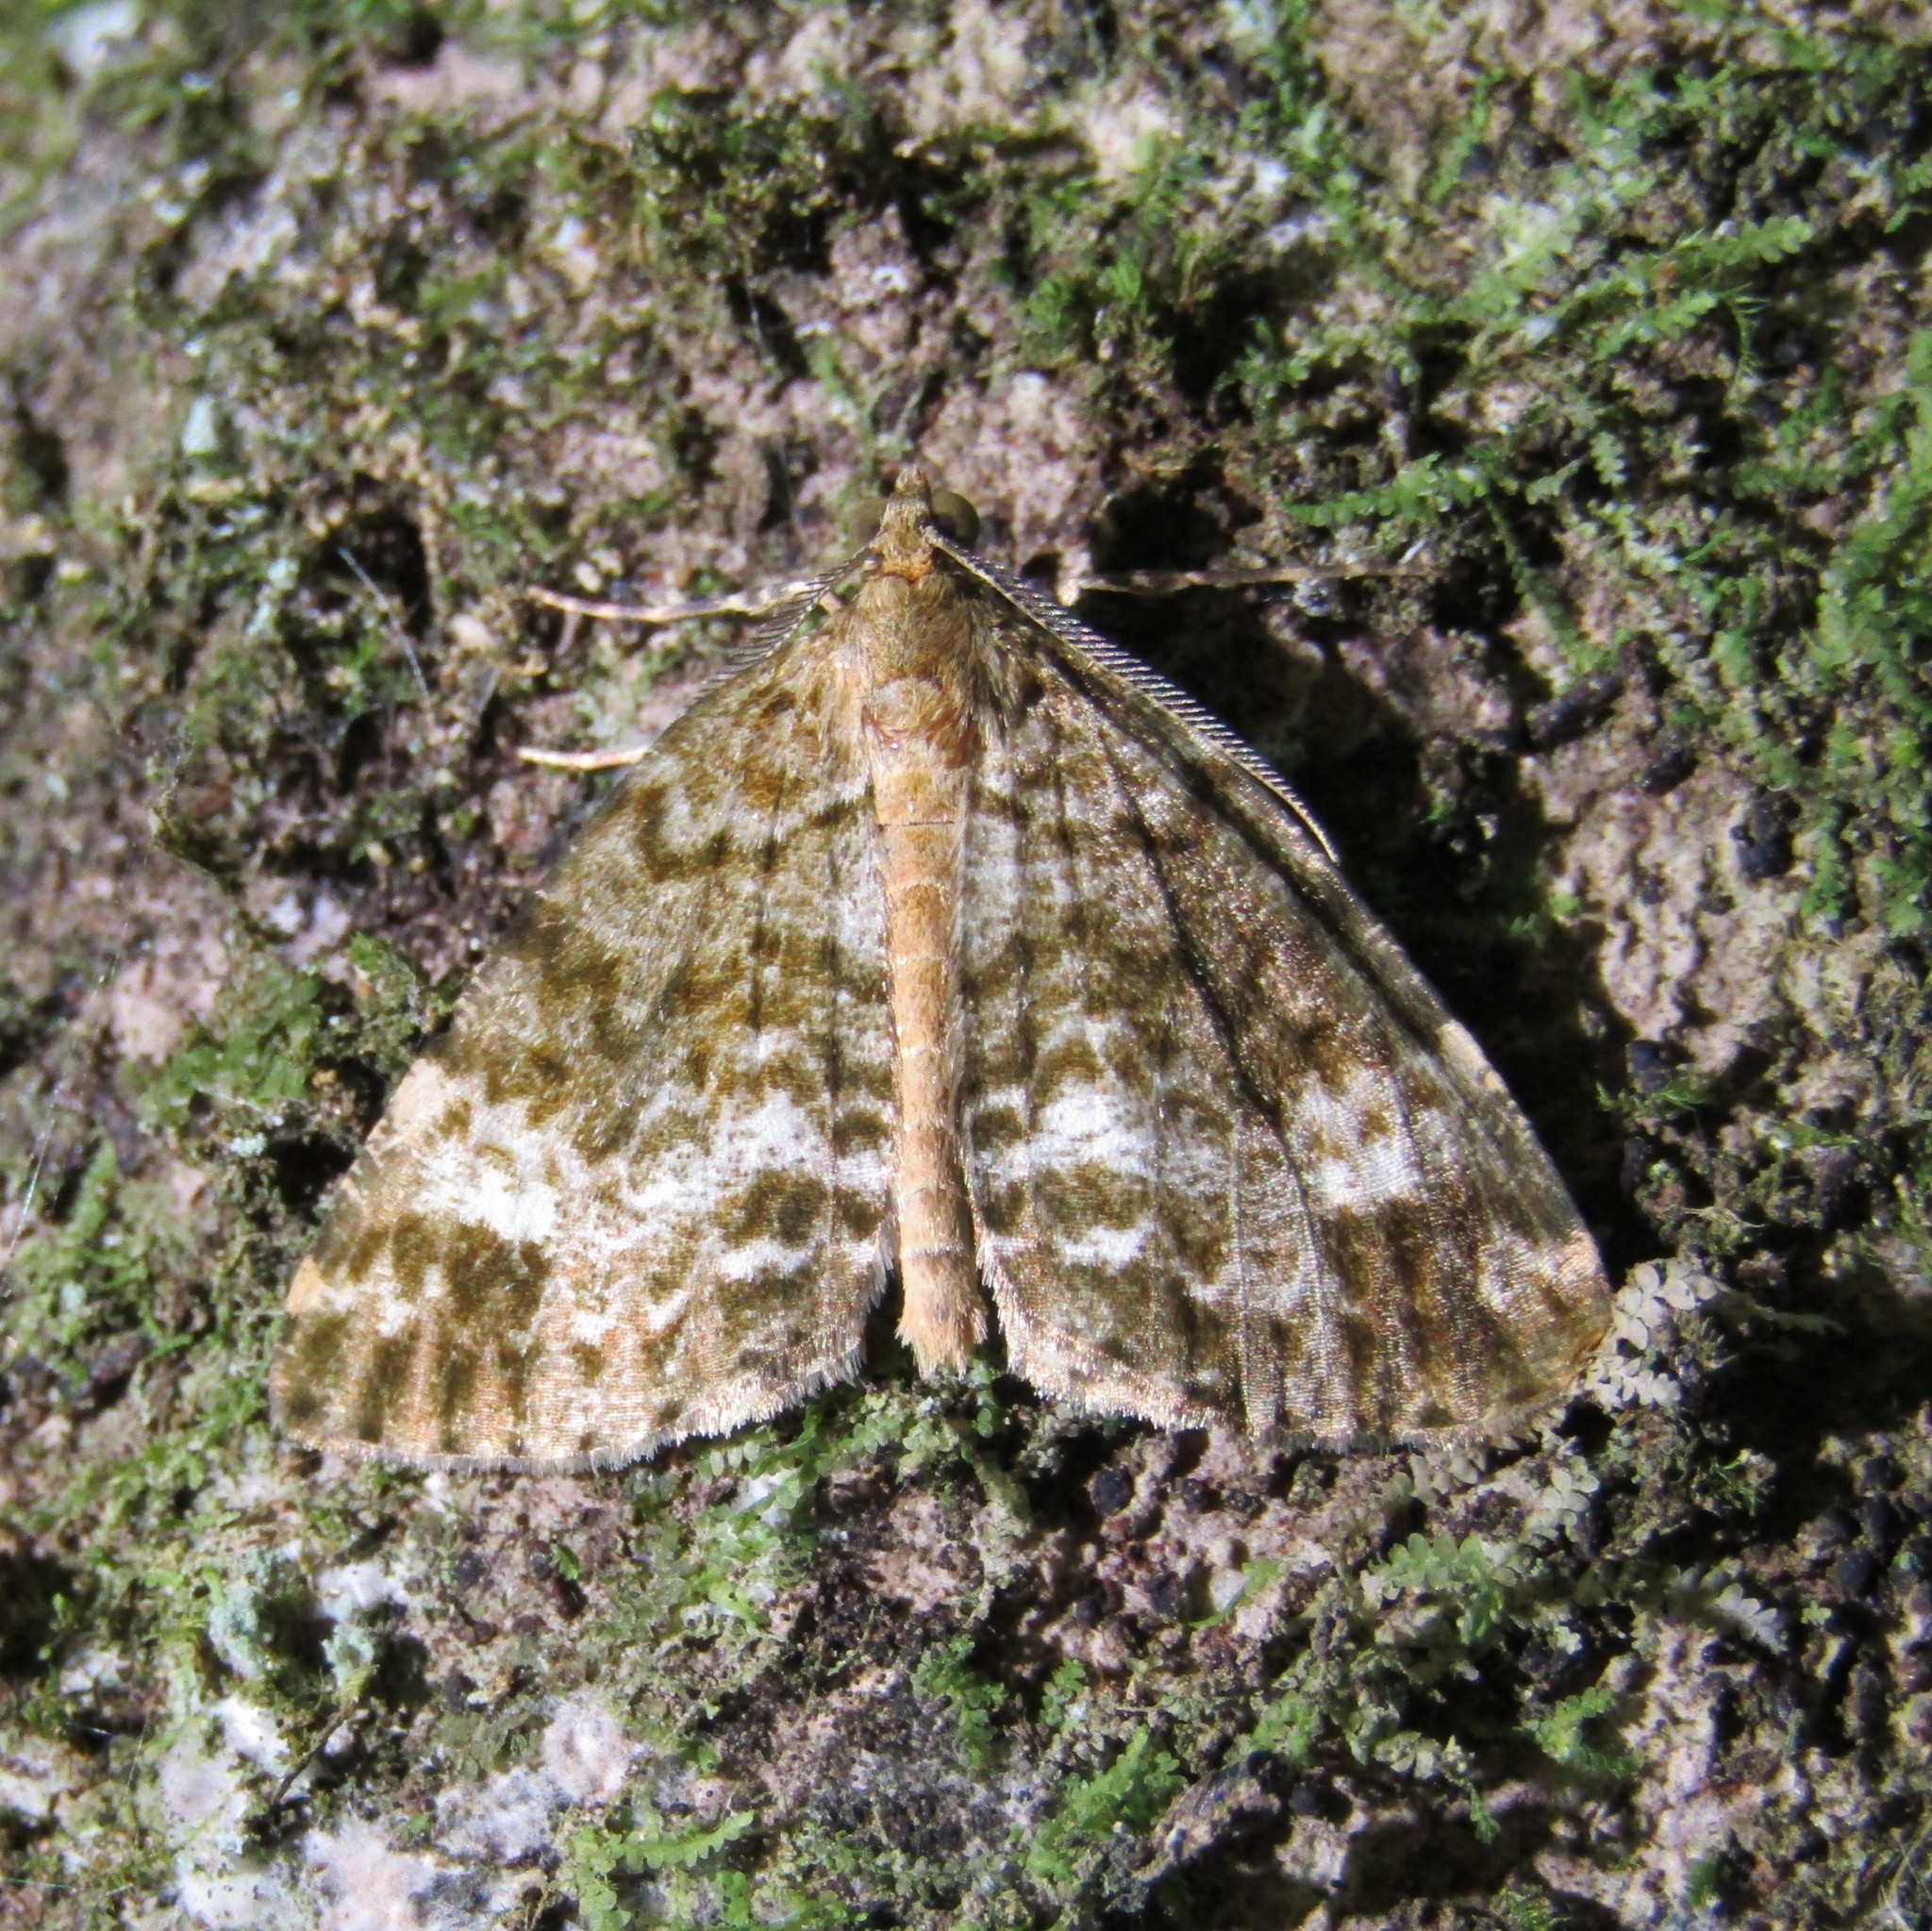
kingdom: Animalia
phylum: Arthropoda
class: Insecta
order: Lepidoptera
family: Geometridae
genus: Pseudocoremia
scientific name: Pseudocoremia indistincta
